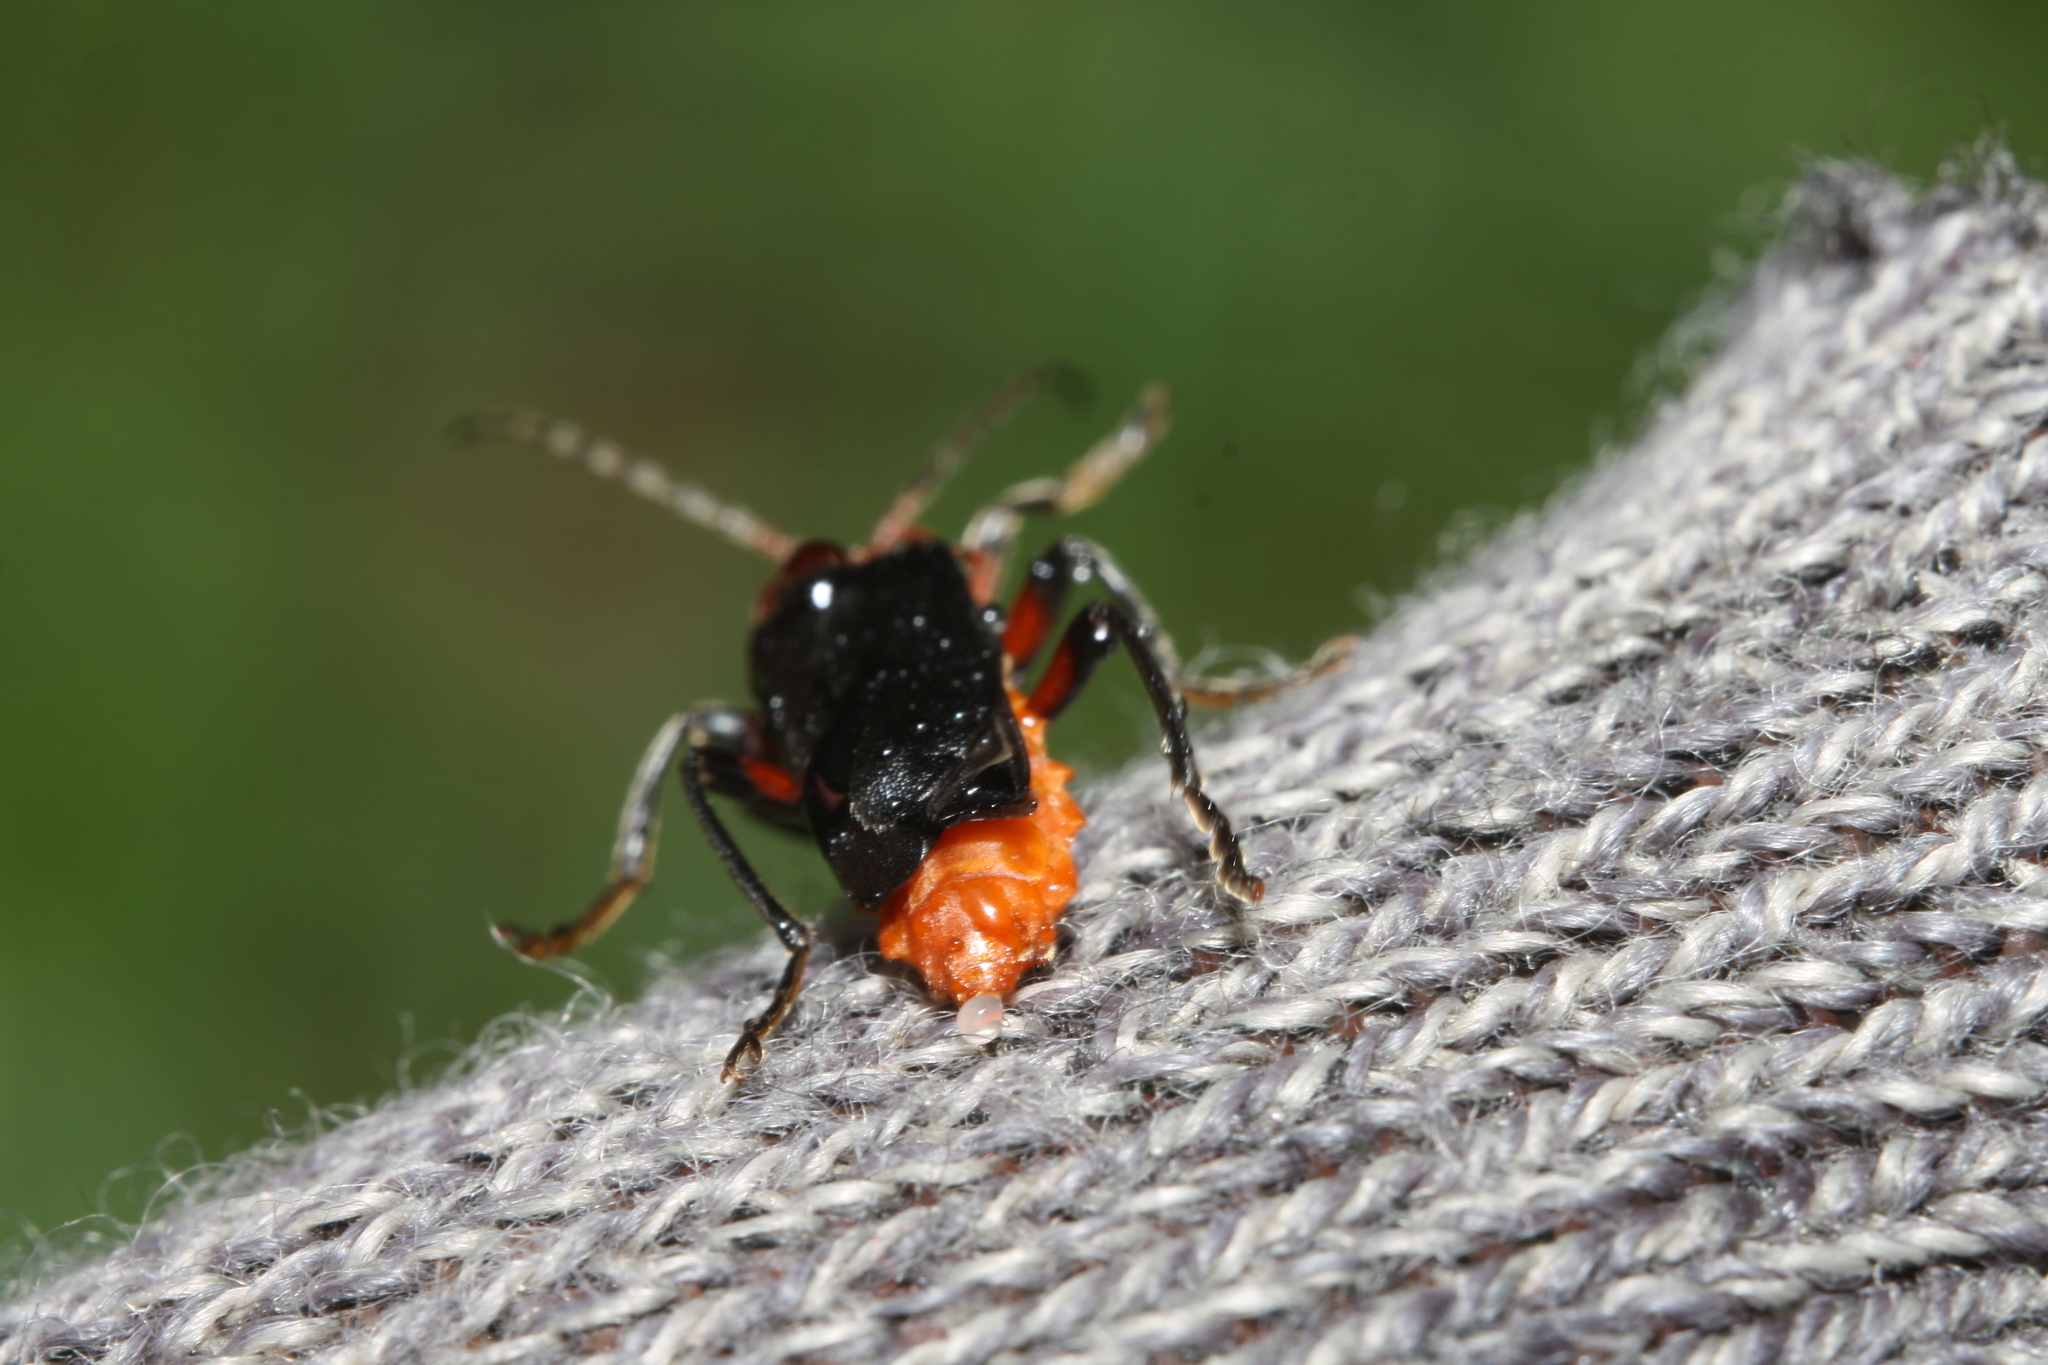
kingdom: Animalia
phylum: Arthropoda
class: Insecta
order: Coleoptera
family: Cantharidae
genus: Cantharis
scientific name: Cantharis rustica
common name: Soldier beetle
